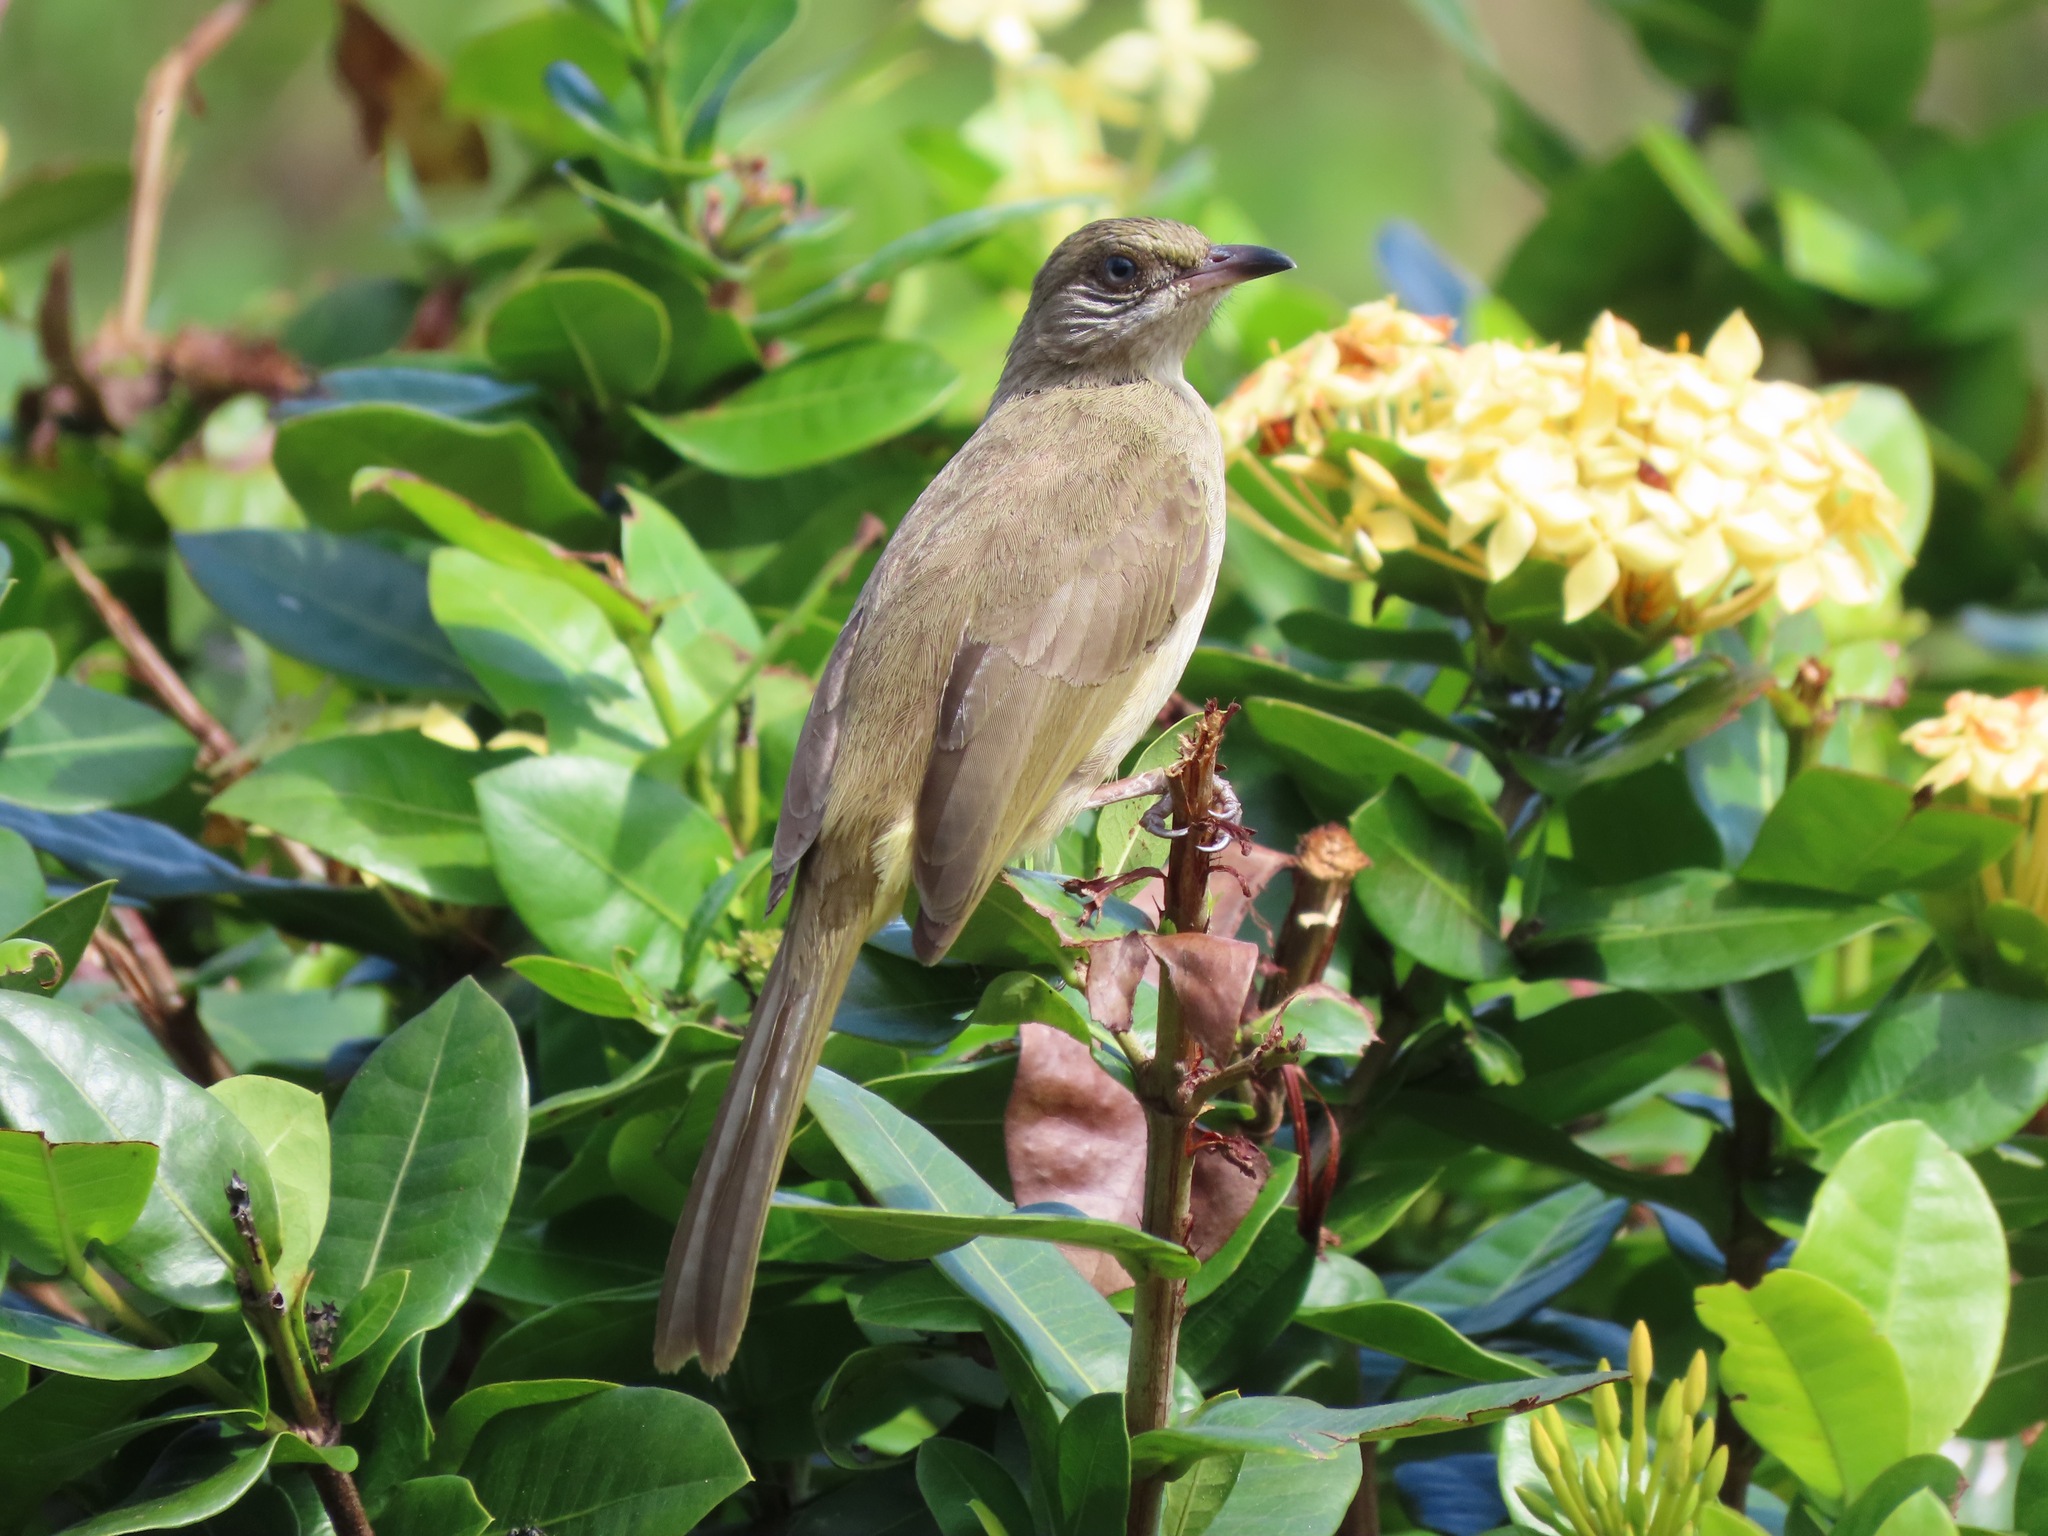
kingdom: Animalia
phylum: Chordata
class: Aves
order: Passeriformes
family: Pycnonotidae
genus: Pycnonotus
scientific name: Pycnonotus blanfordi
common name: Streak-eared bulbul
